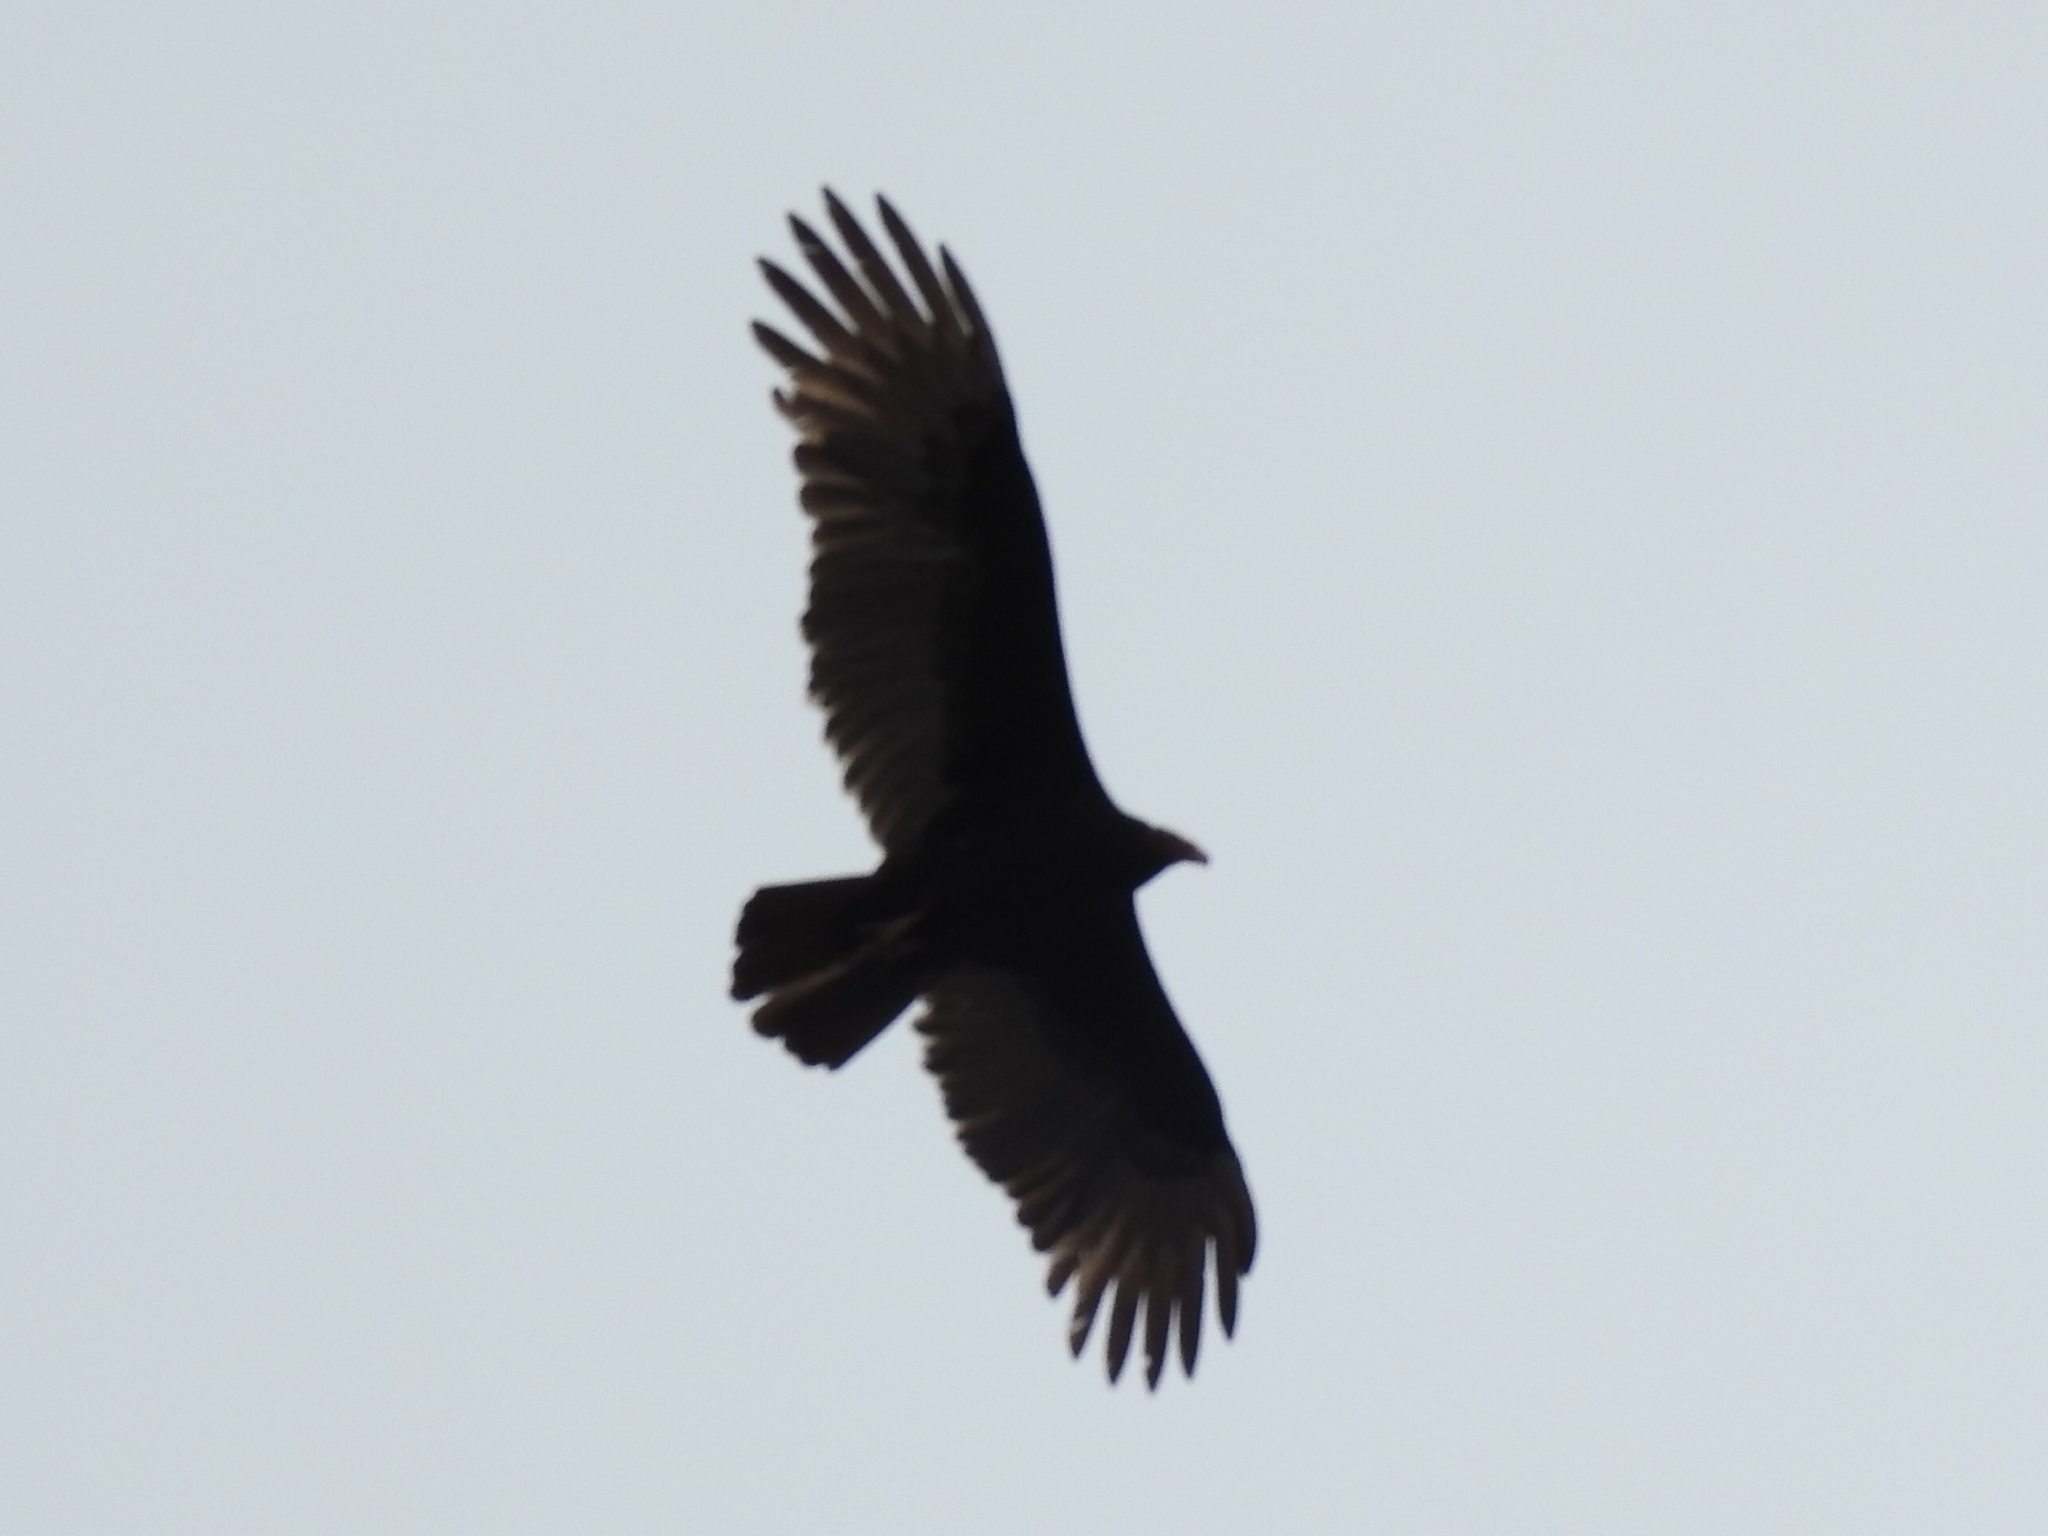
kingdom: Animalia
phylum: Chordata
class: Aves
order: Accipitriformes
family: Cathartidae
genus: Cathartes
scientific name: Cathartes aura
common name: Turkey vulture
